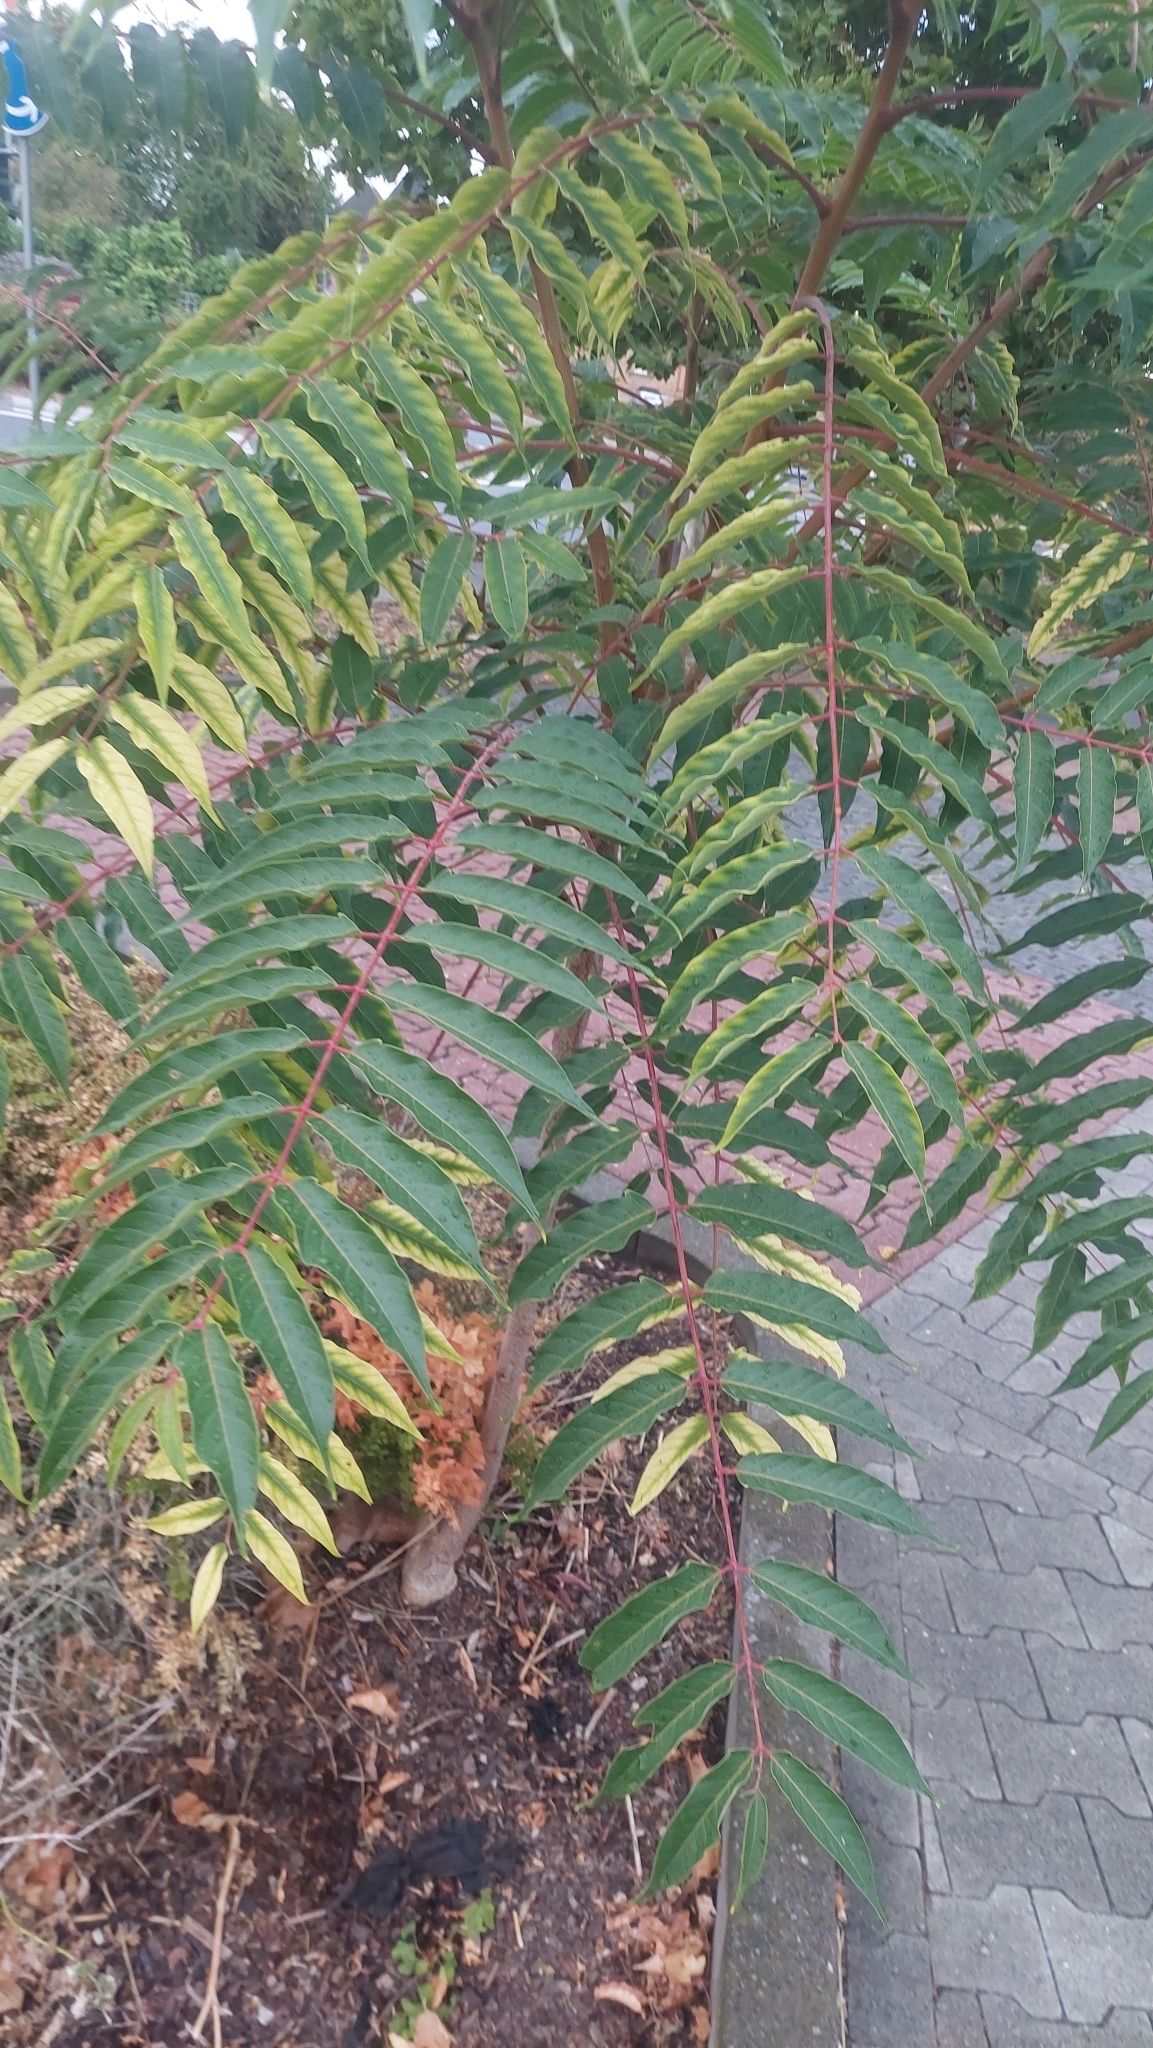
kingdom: Plantae
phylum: Tracheophyta
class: Magnoliopsida
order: Sapindales
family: Simaroubaceae
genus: Ailanthus
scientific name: Ailanthus altissima
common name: Tree-of-heaven
